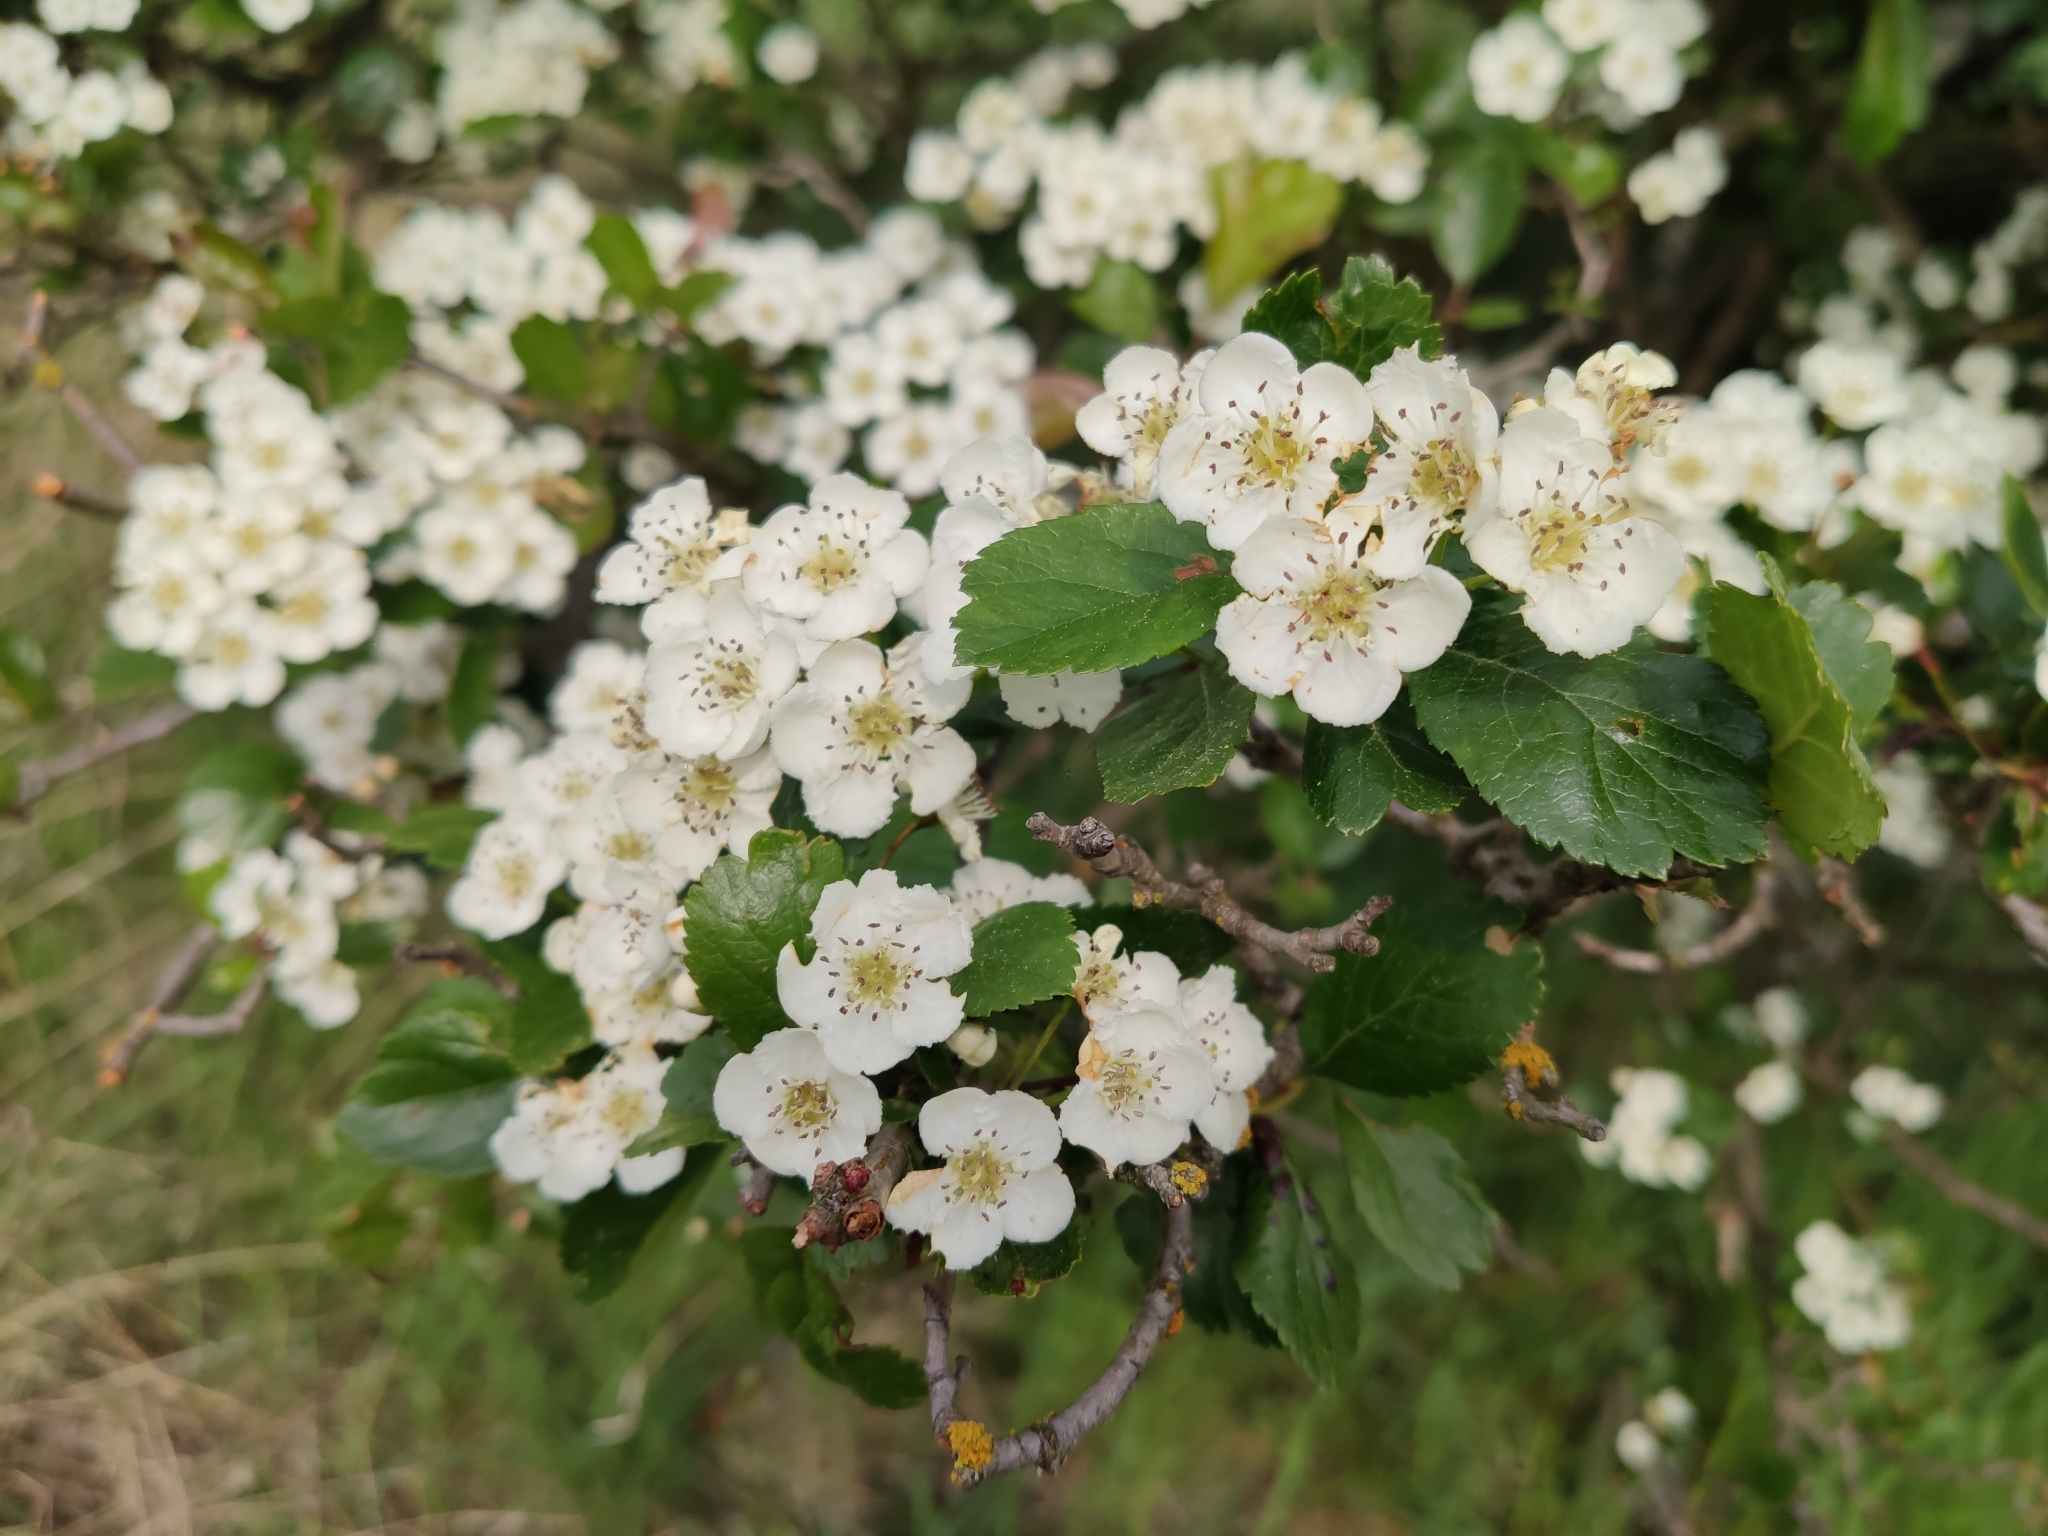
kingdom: Plantae
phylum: Tracheophyta
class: Magnoliopsida
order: Rosales
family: Rosaceae
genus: Crataegus
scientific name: Crataegus laevigata
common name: Midland hawthorn
